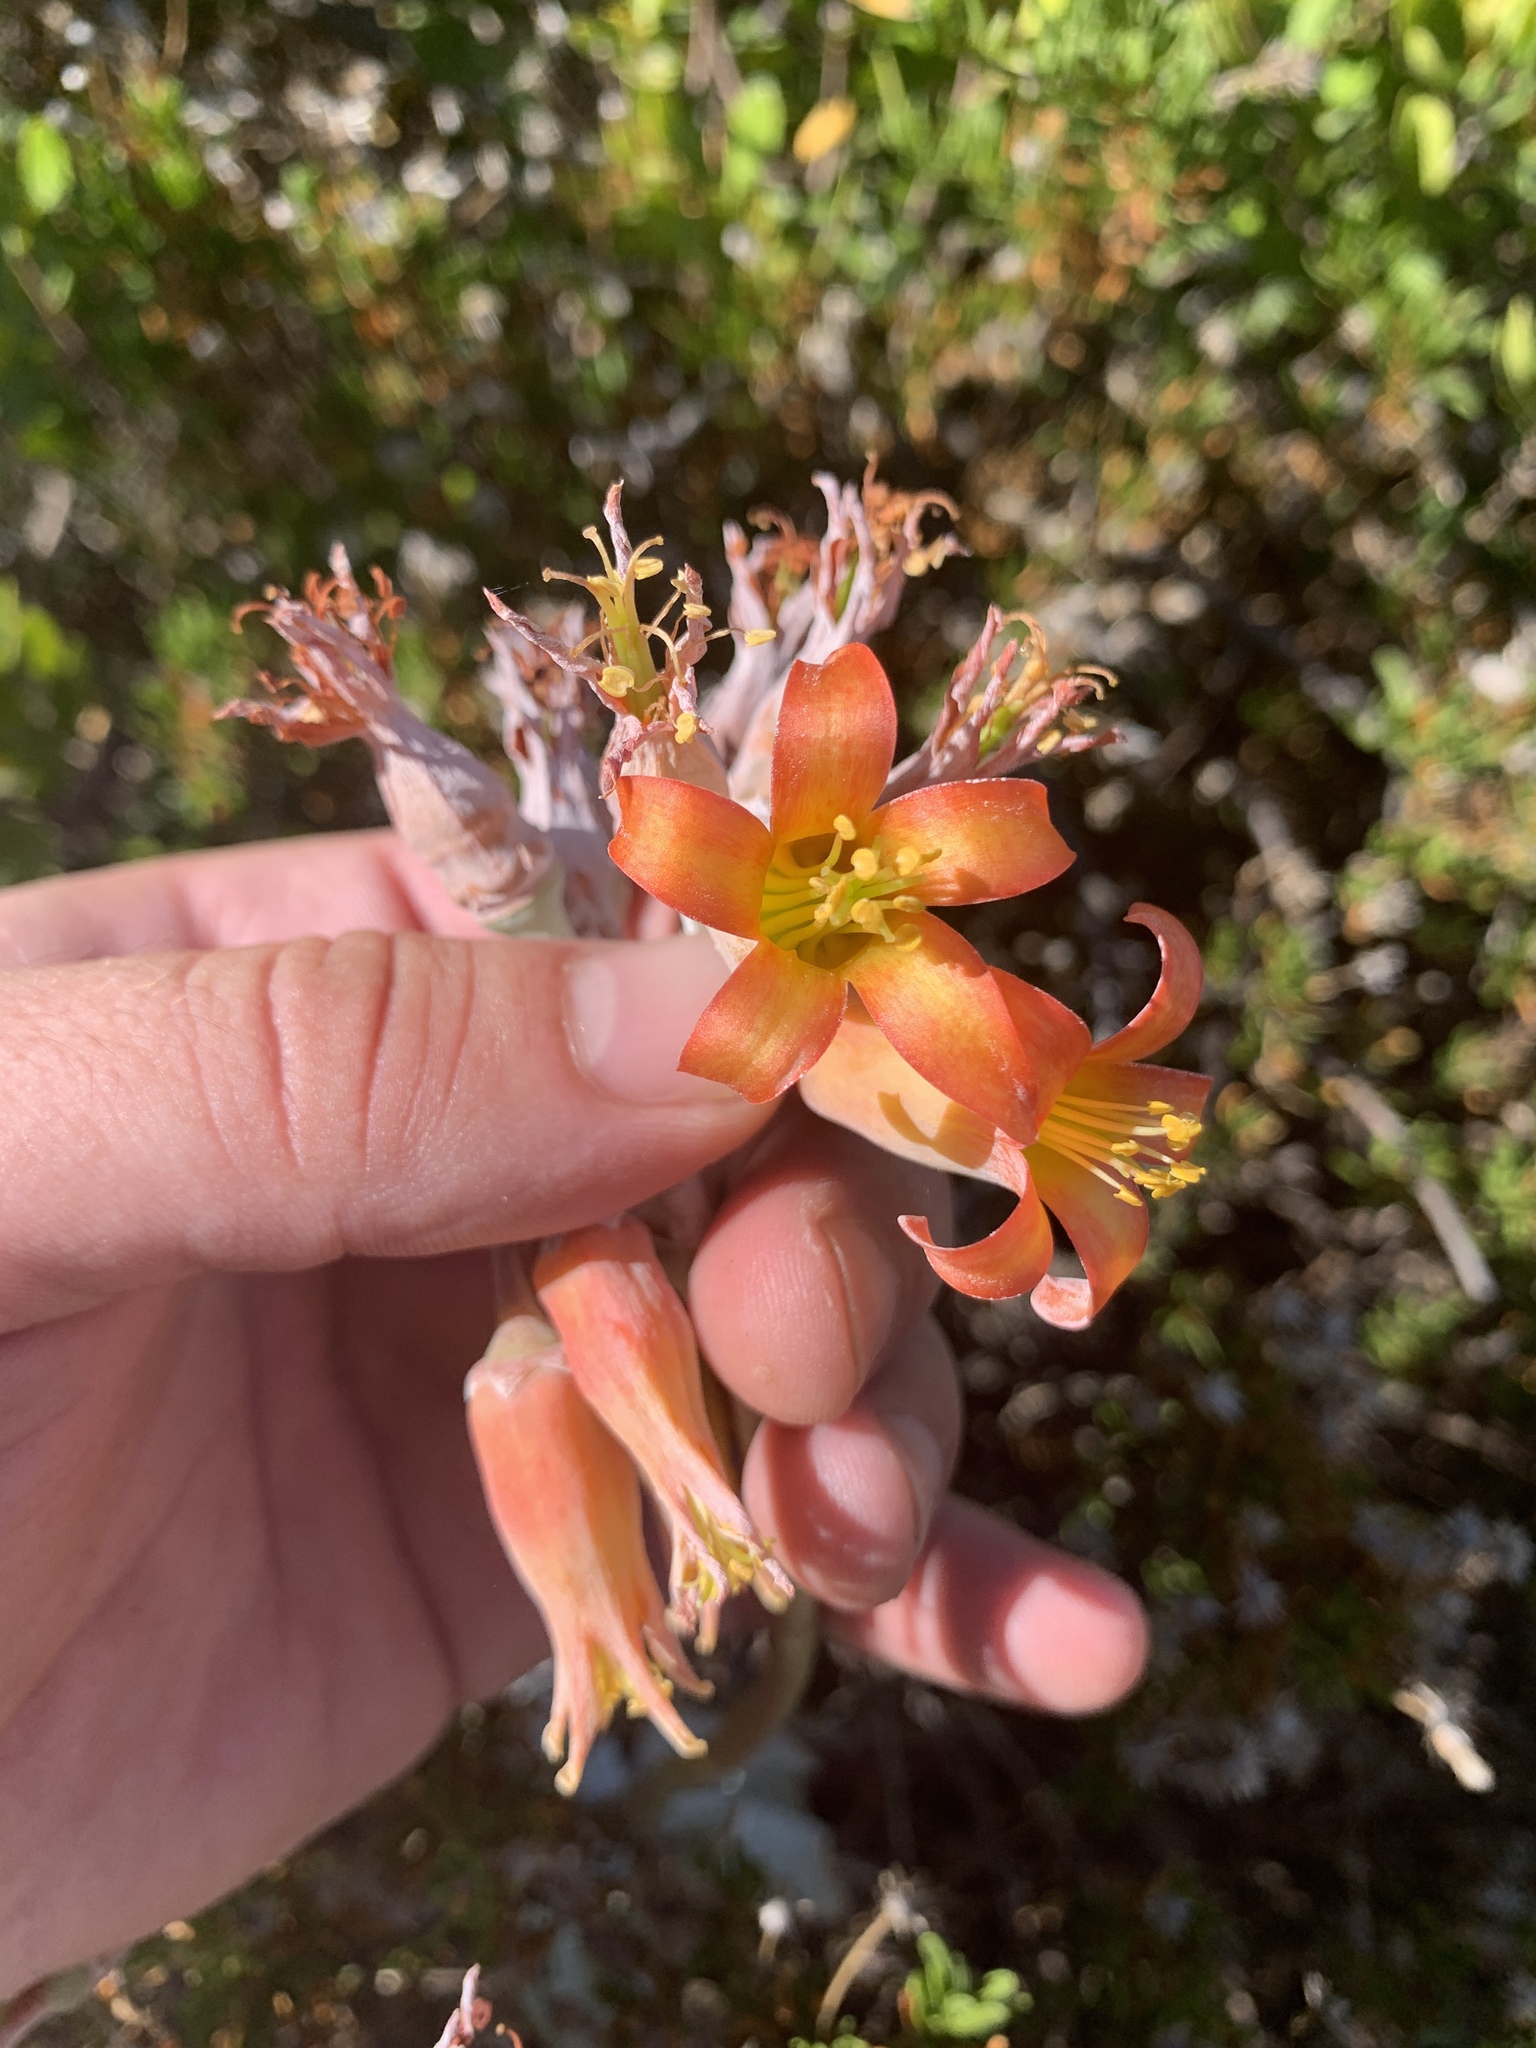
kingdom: Plantae
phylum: Tracheophyta
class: Magnoliopsida
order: Saxifragales
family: Crassulaceae
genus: Cotyledon
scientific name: Cotyledon orbiculata
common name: Pig's ear
